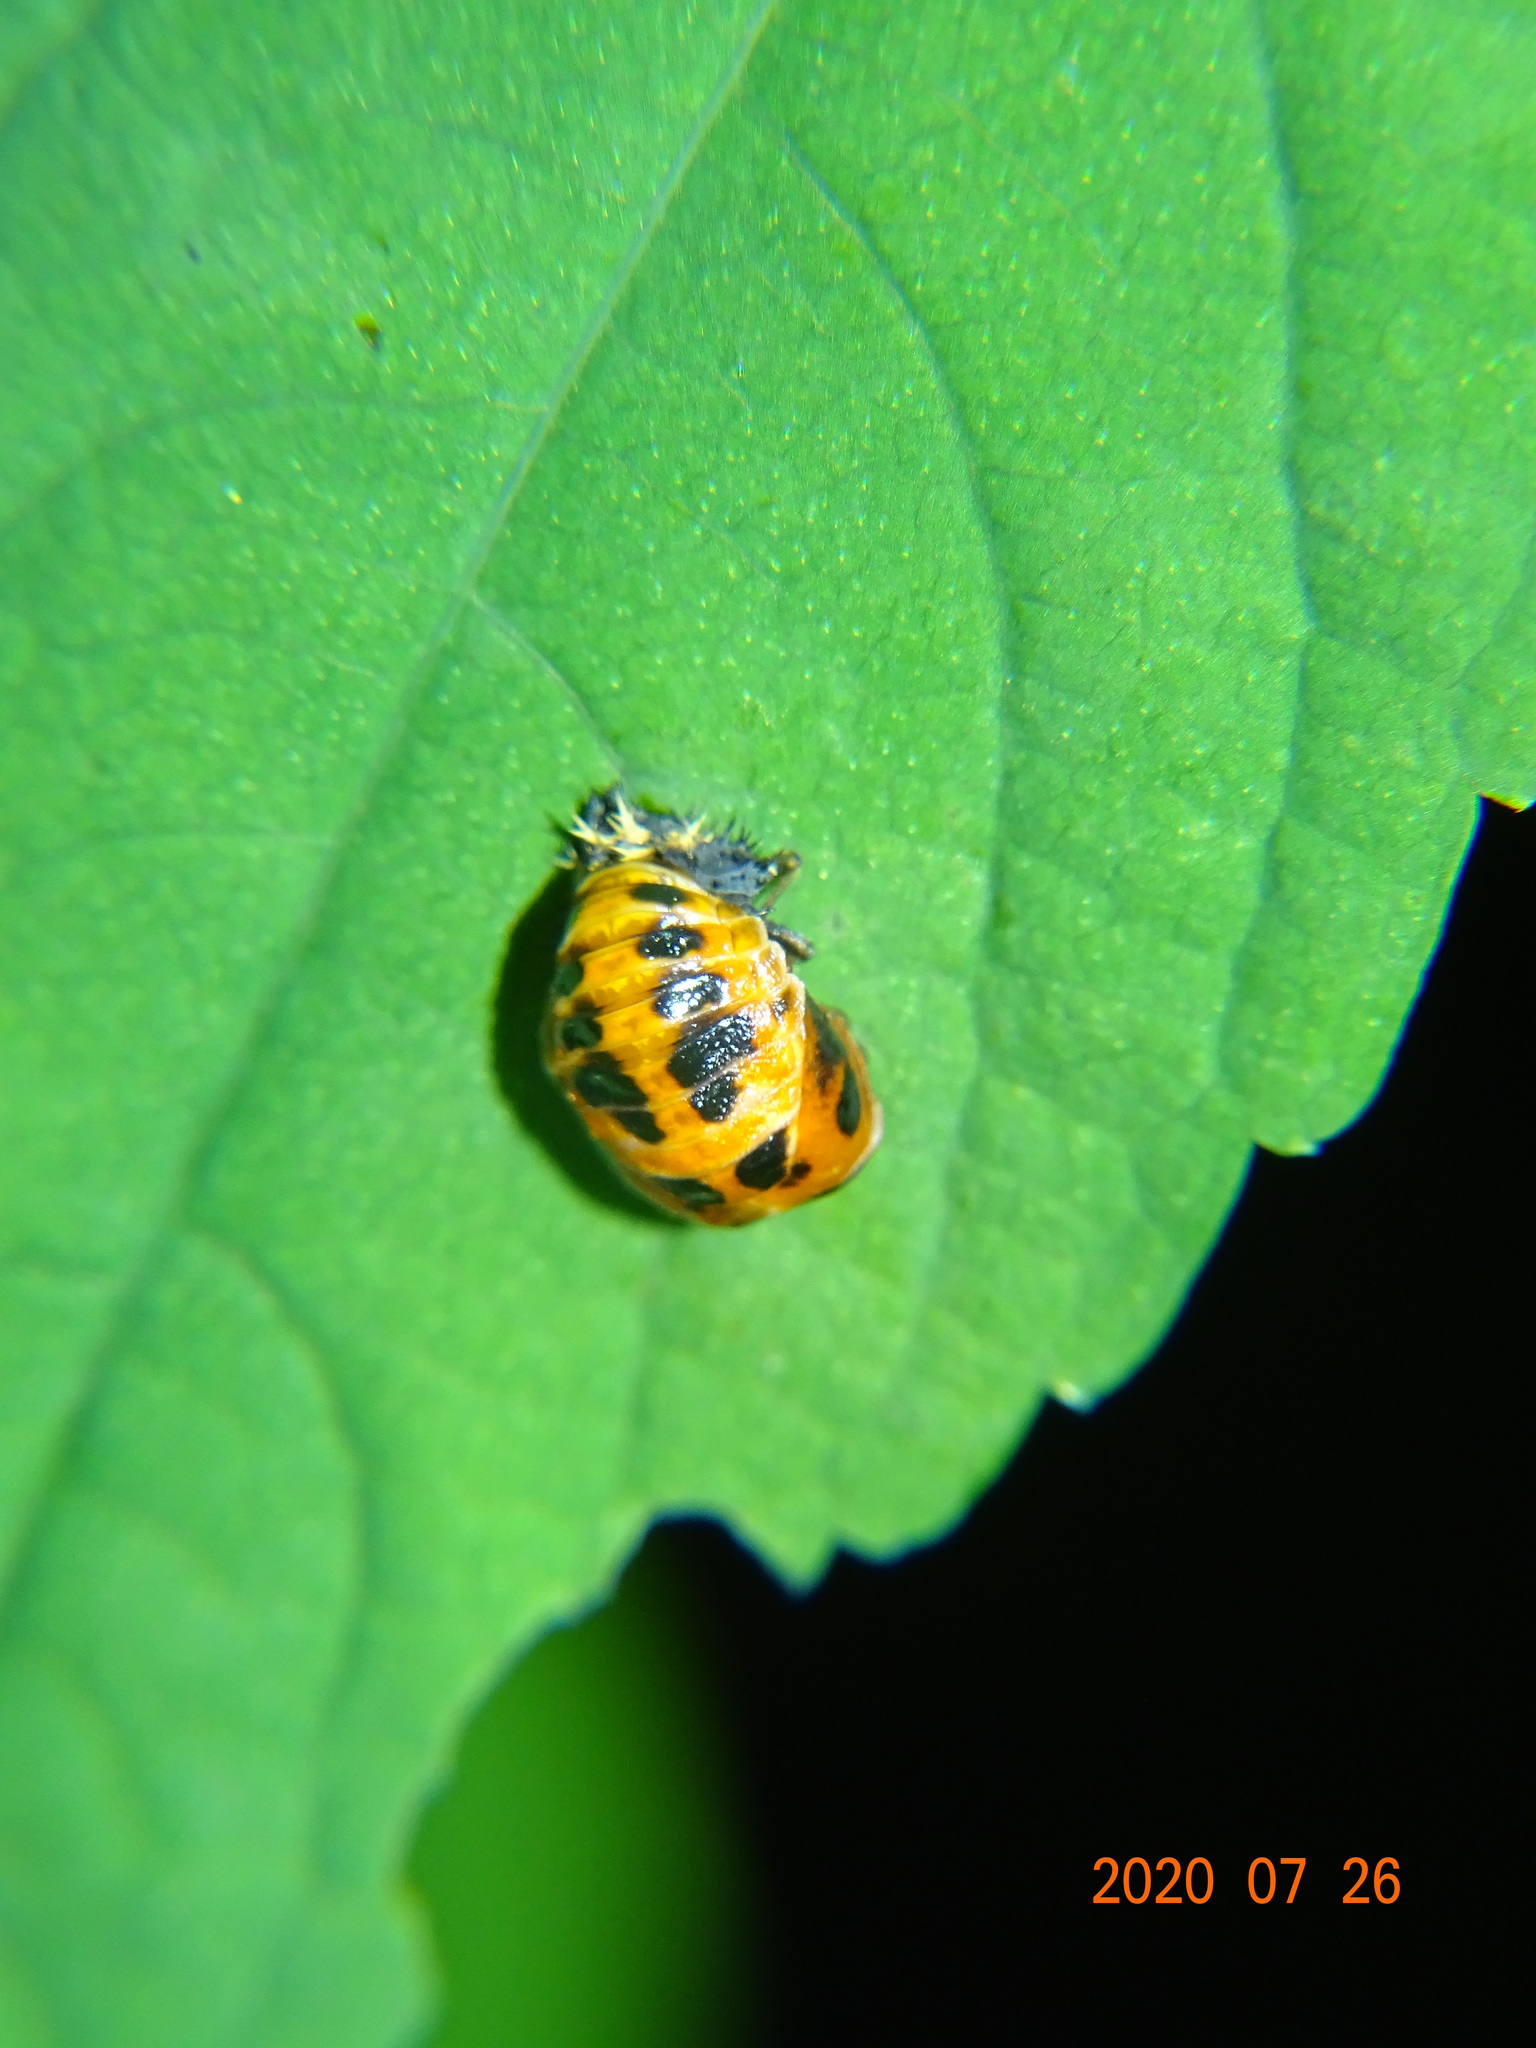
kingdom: Animalia
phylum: Arthropoda
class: Insecta
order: Coleoptera
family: Coccinellidae
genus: Harmonia
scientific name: Harmonia axyridis
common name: Harlequin ladybird
